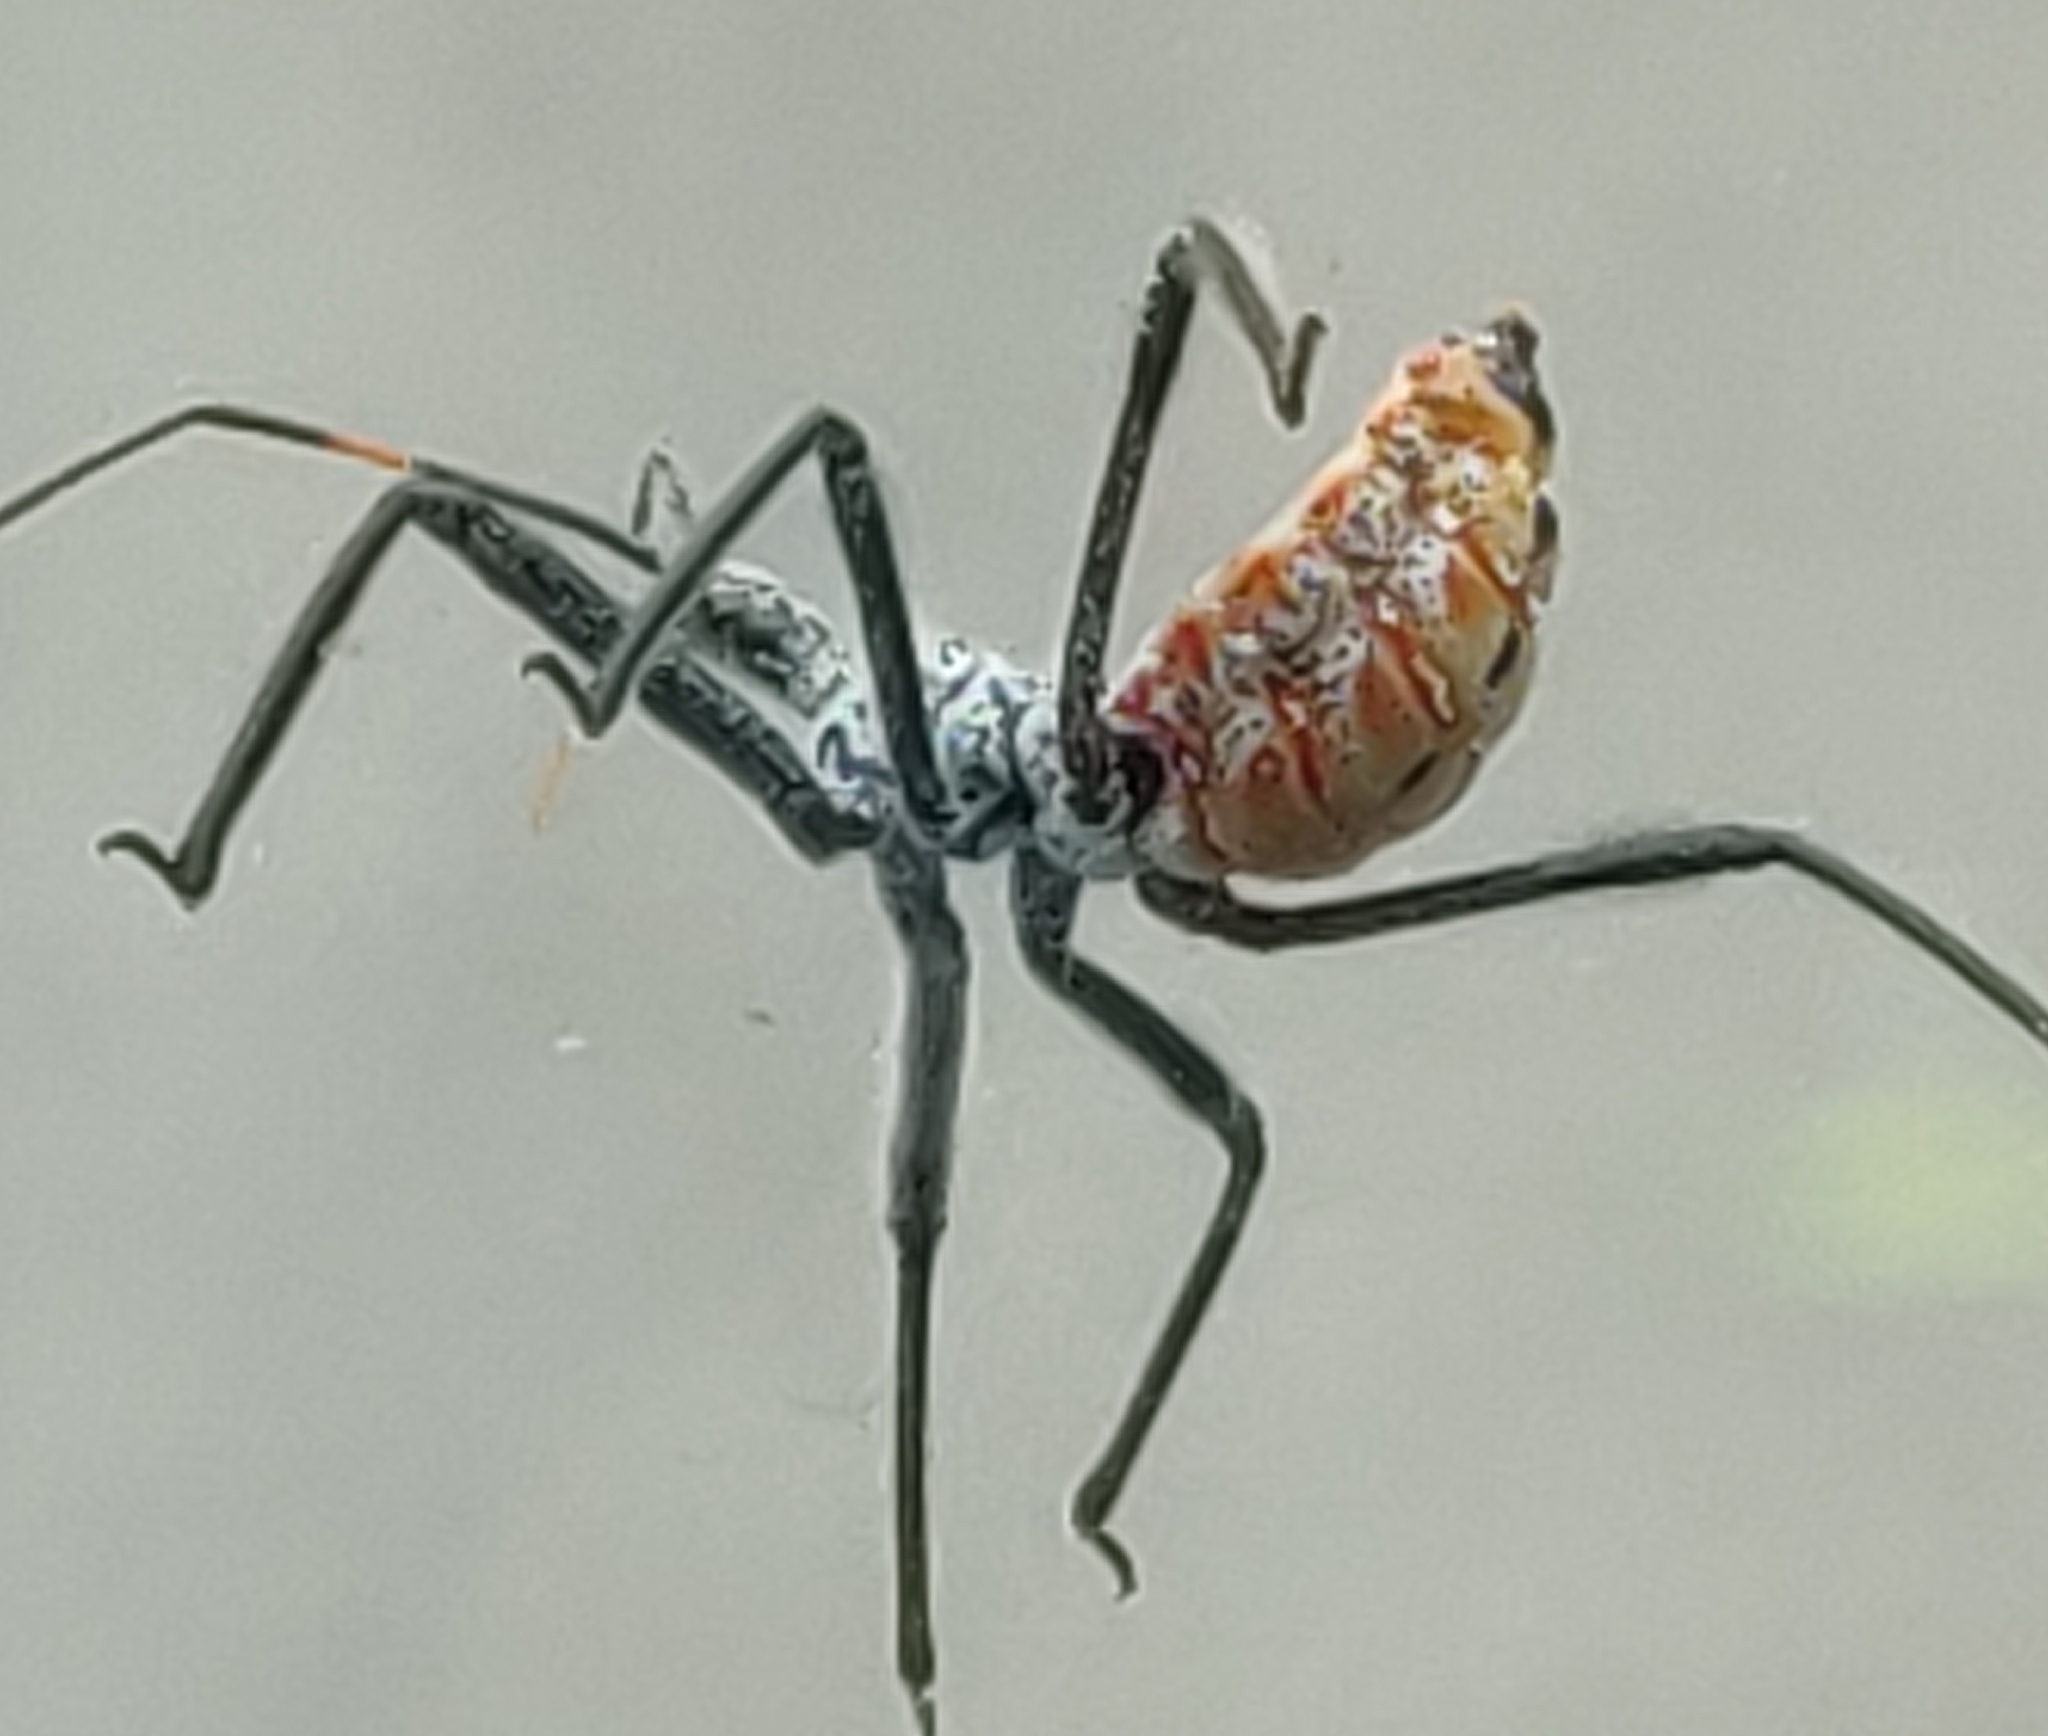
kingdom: Animalia
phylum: Arthropoda
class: Insecta
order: Hemiptera
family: Reduviidae
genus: Arilus
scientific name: Arilus cristatus
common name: North american wheel bug
